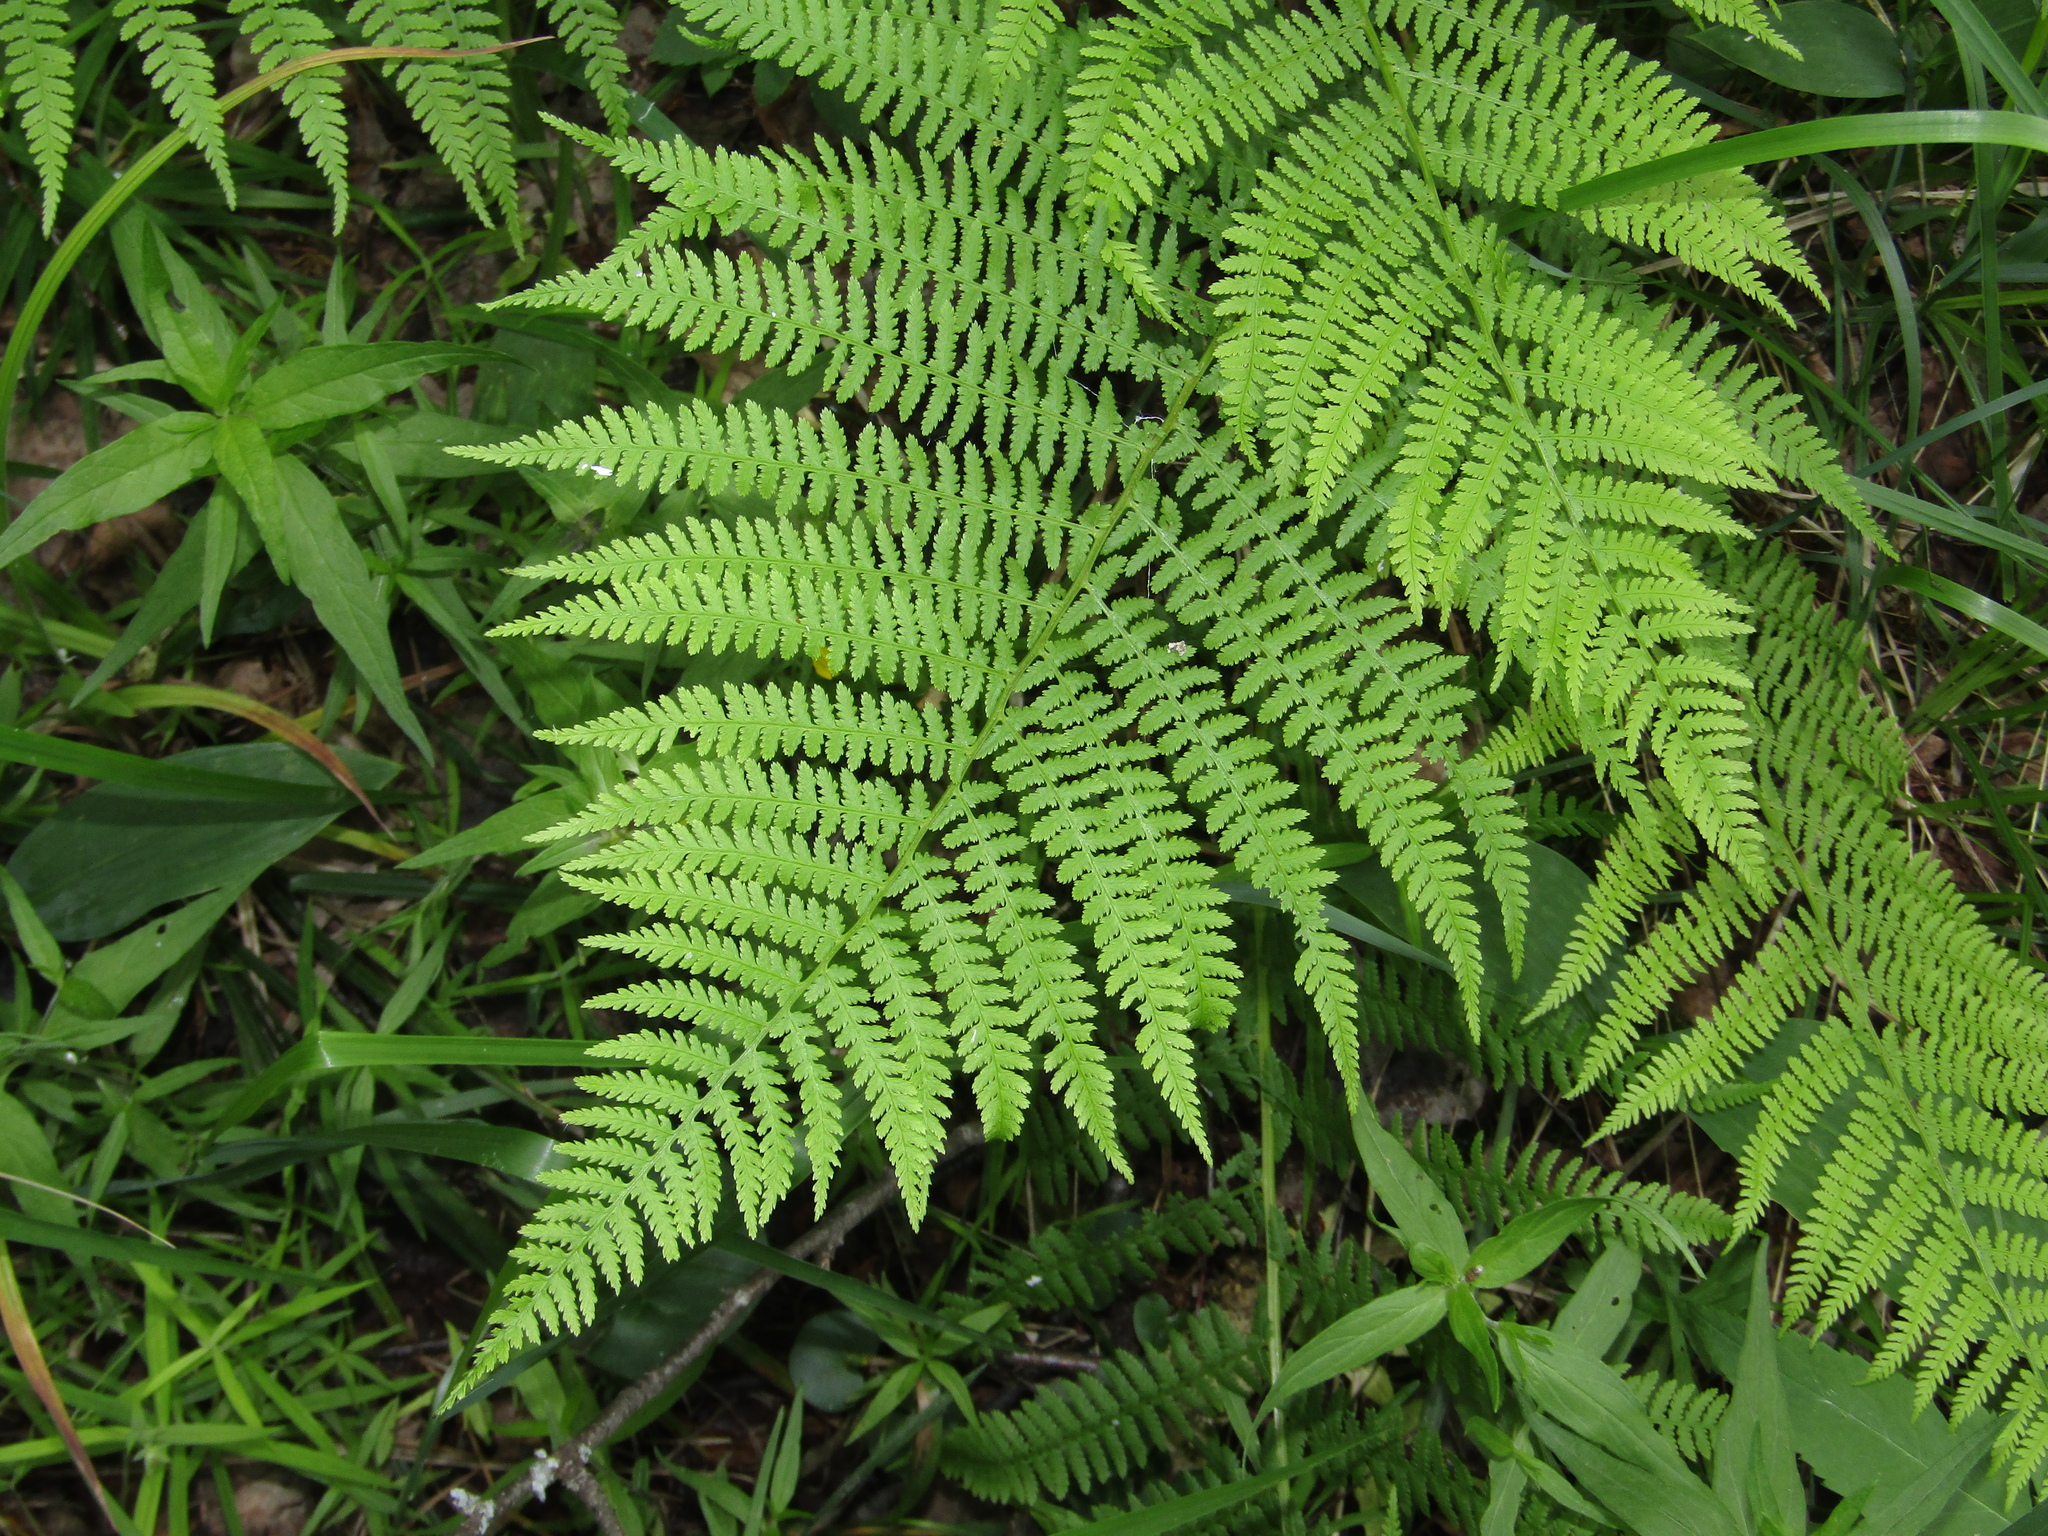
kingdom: Plantae
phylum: Tracheophyta
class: Polypodiopsida
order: Polypodiales
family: Athyriaceae
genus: Athyrium
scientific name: Athyrium filix-femina
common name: Lady fern
